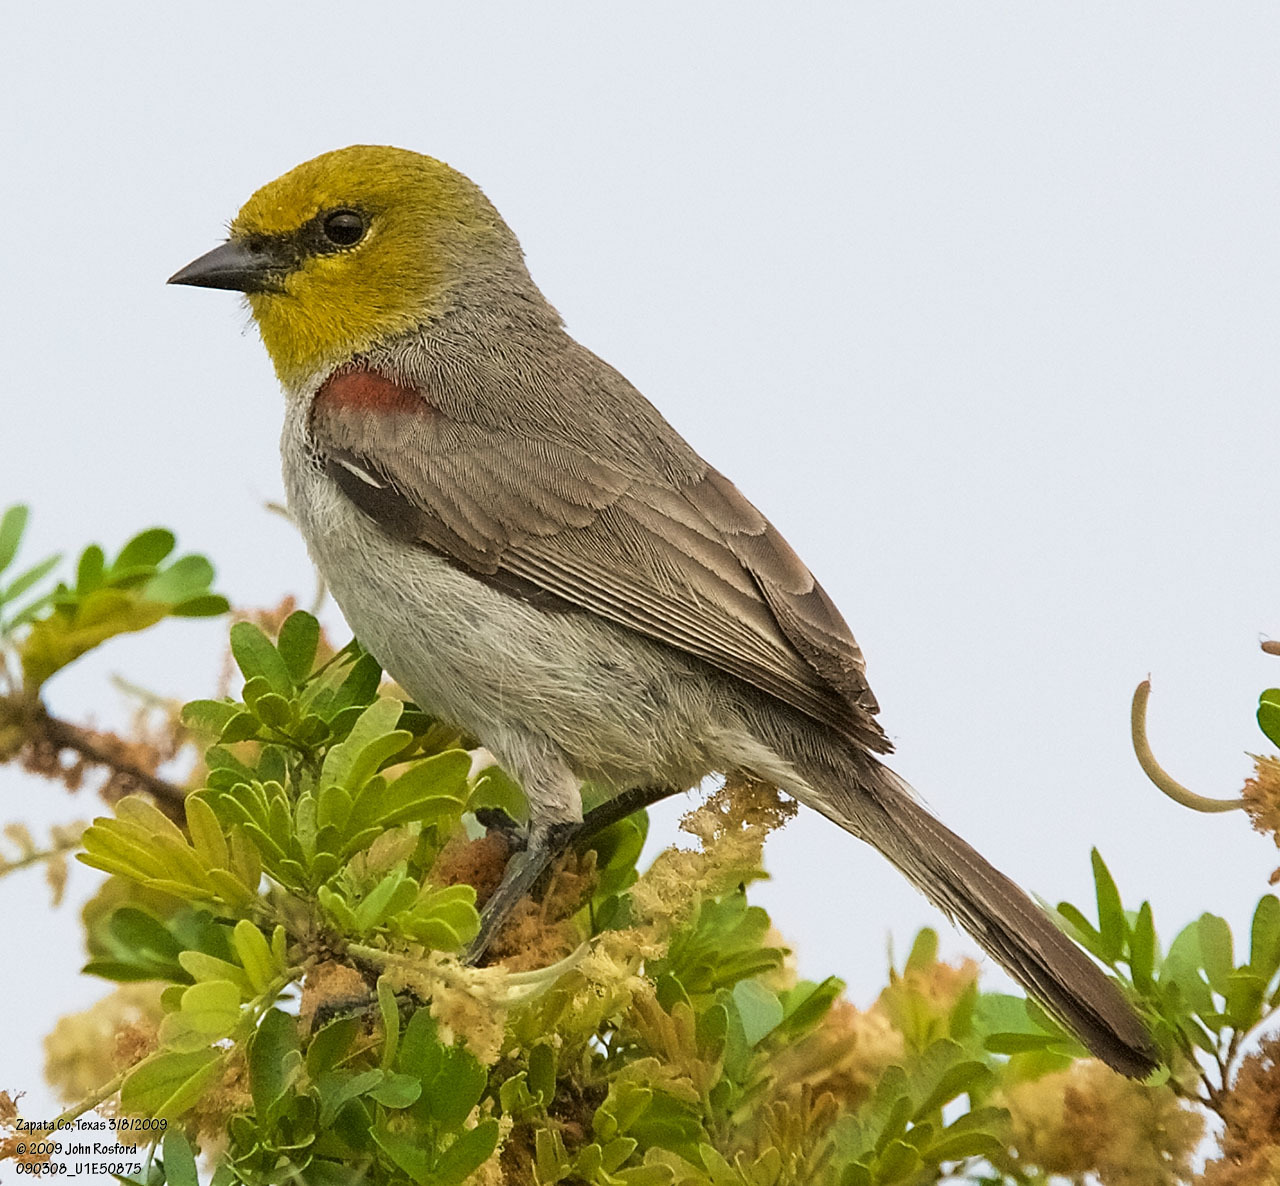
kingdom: Animalia
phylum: Chordata
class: Aves
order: Passeriformes
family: Remizidae
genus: Auriparus
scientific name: Auriparus flaviceps
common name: Verdin
